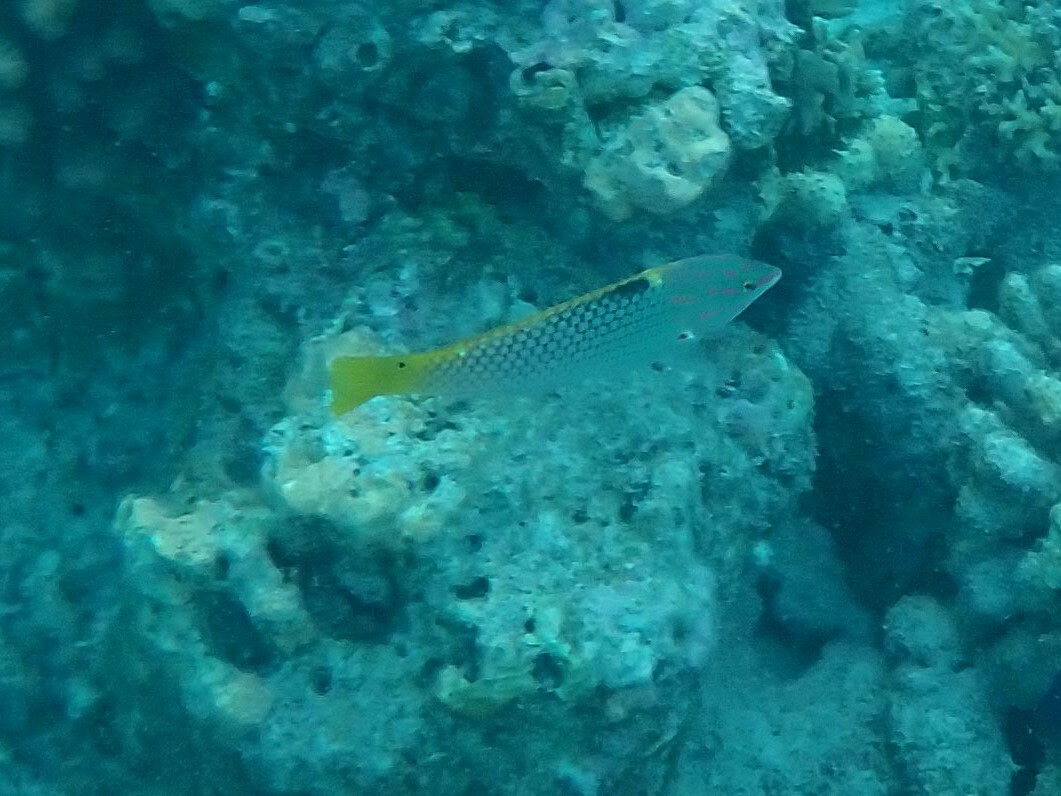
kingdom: Animalia
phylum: Chordata
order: Perciformes
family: Labridae
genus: Halichoeres
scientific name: Halichoeres hortulanus
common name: Checkerboard wrasse
